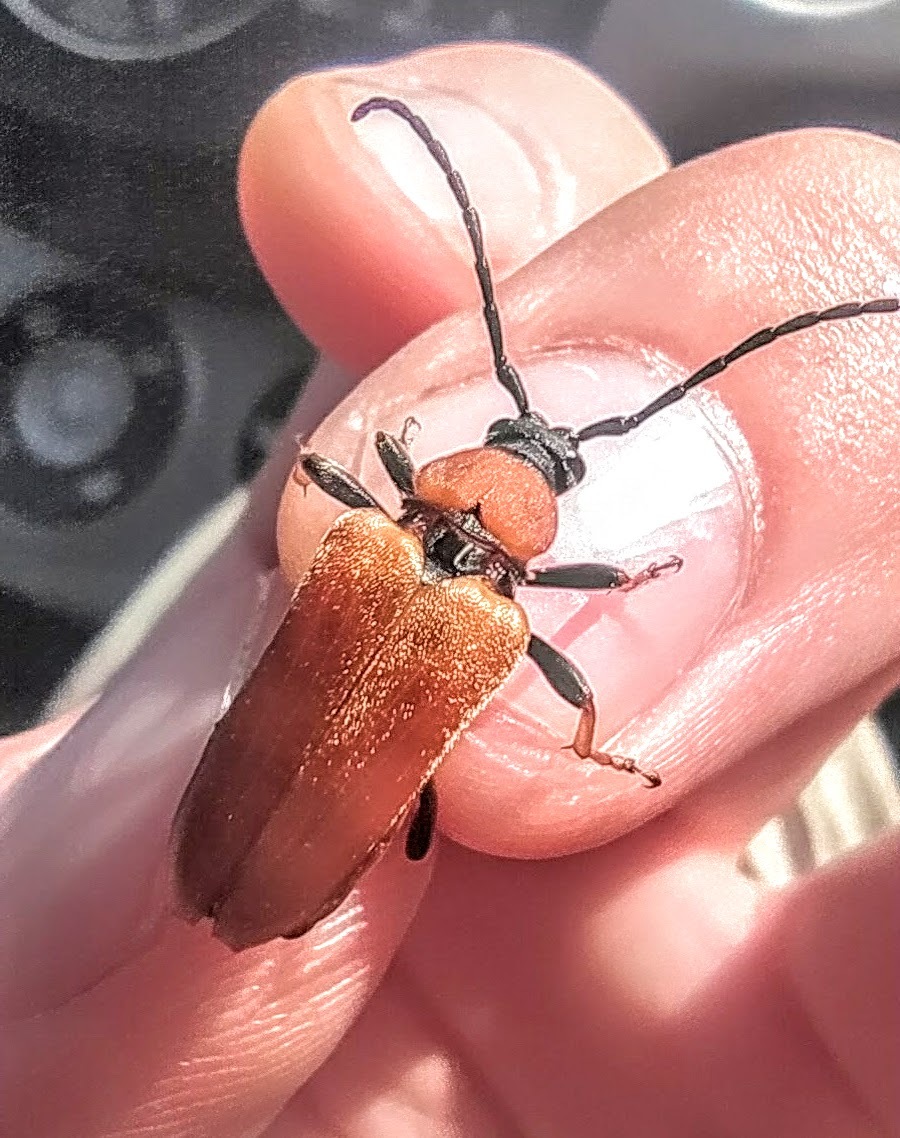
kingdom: Animalia
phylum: Arthropoda
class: Insecta
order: Coleoptera
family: Cerambycidae
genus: Stictoleptura
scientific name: Stictoleptura rubra
